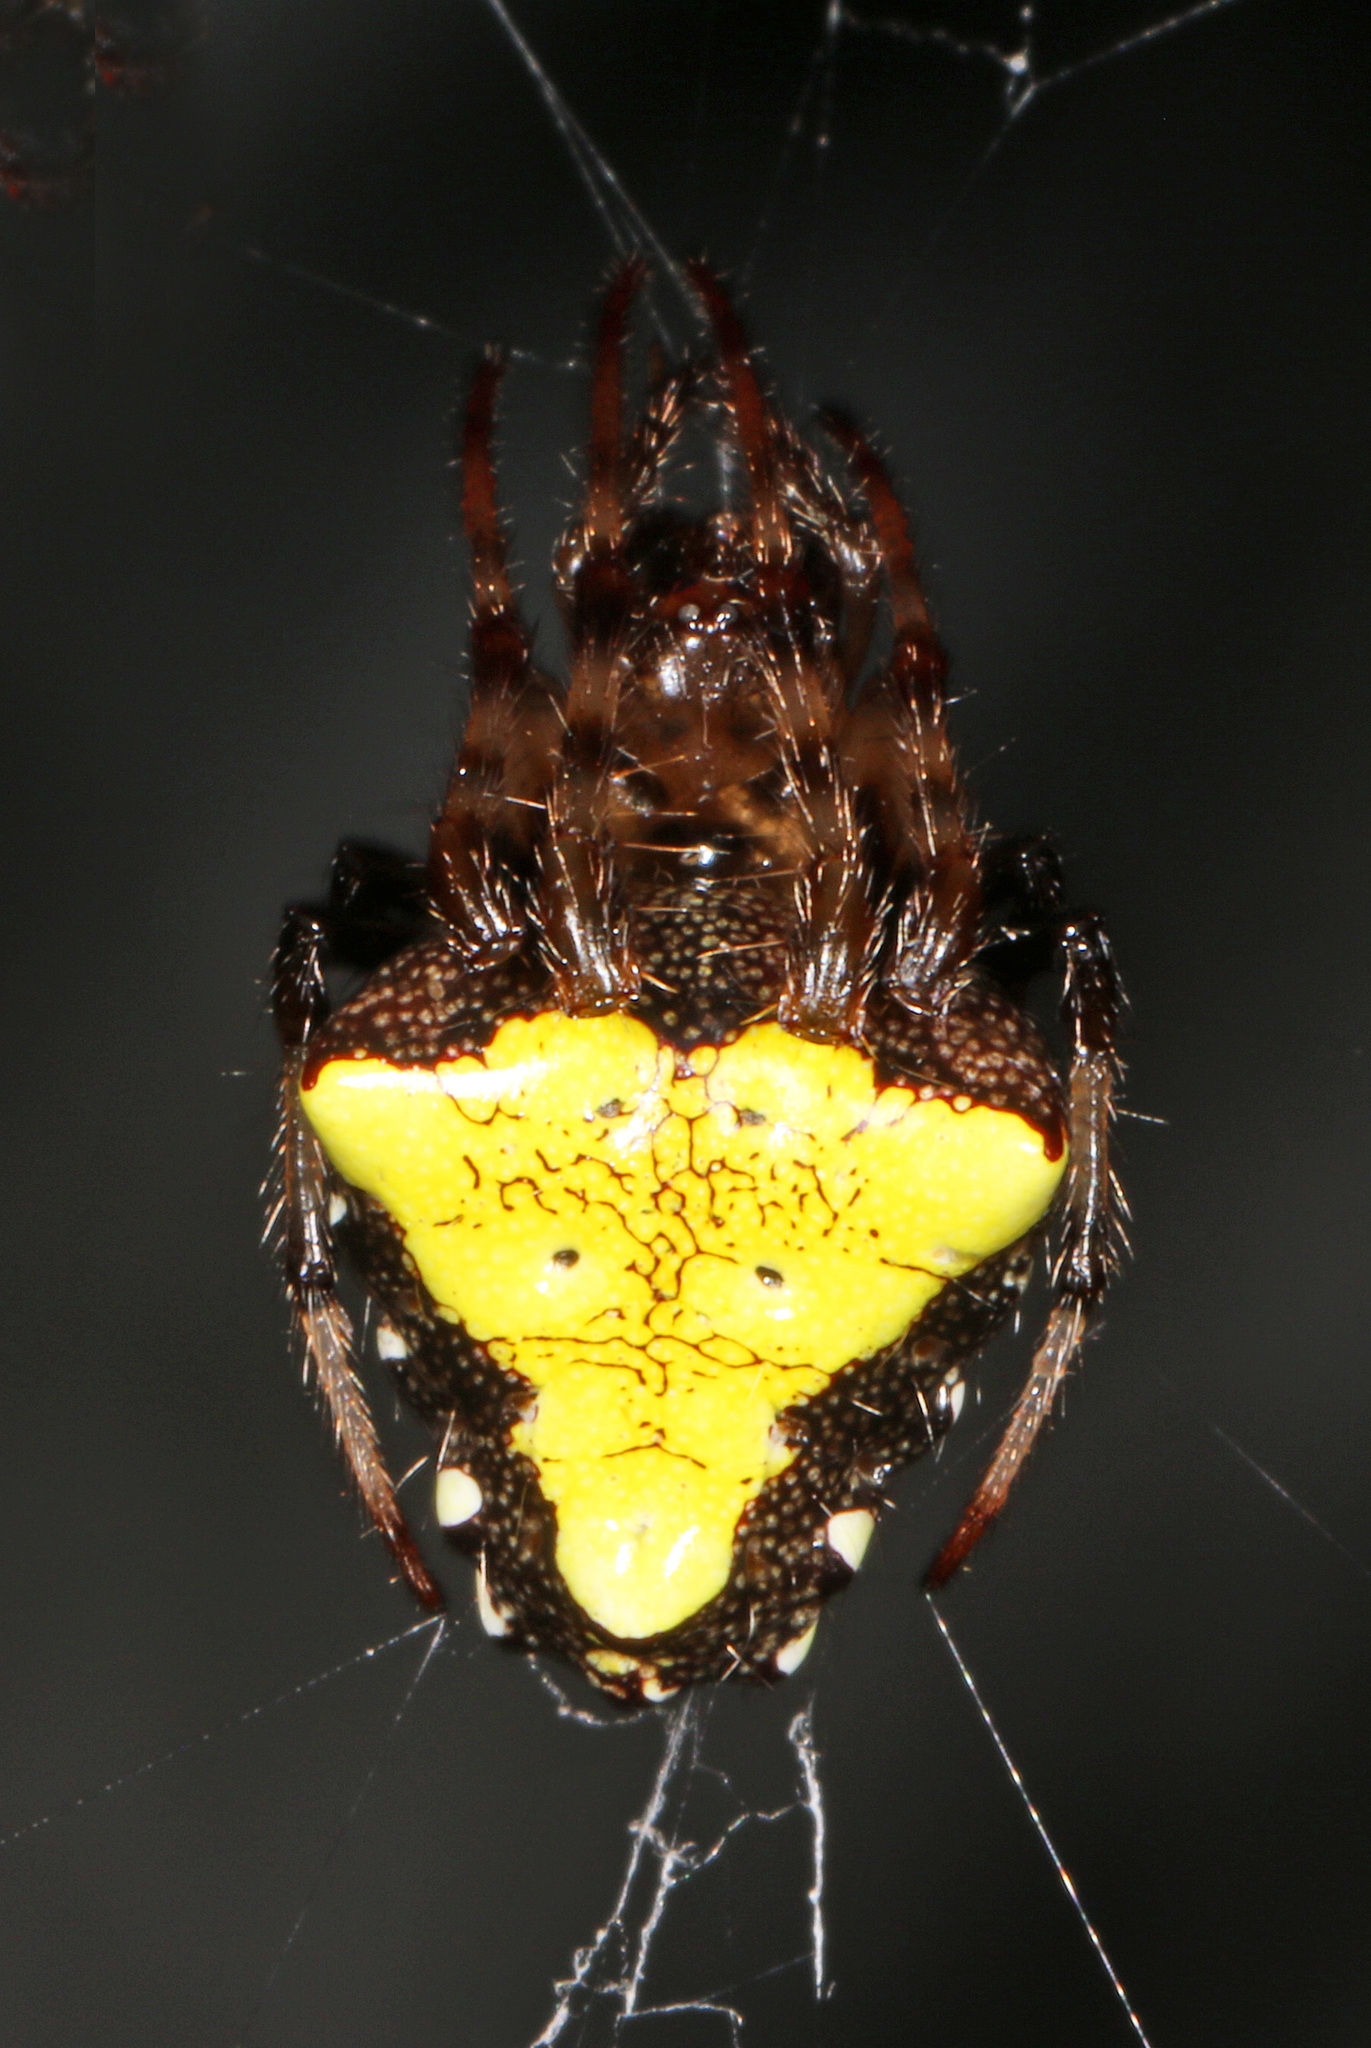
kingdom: Animalia
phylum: Arthropoda
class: Arachnida
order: Araneae
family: Araneidae
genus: Verrucosa
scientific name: Verrucosa arenata
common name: Orb weavers
